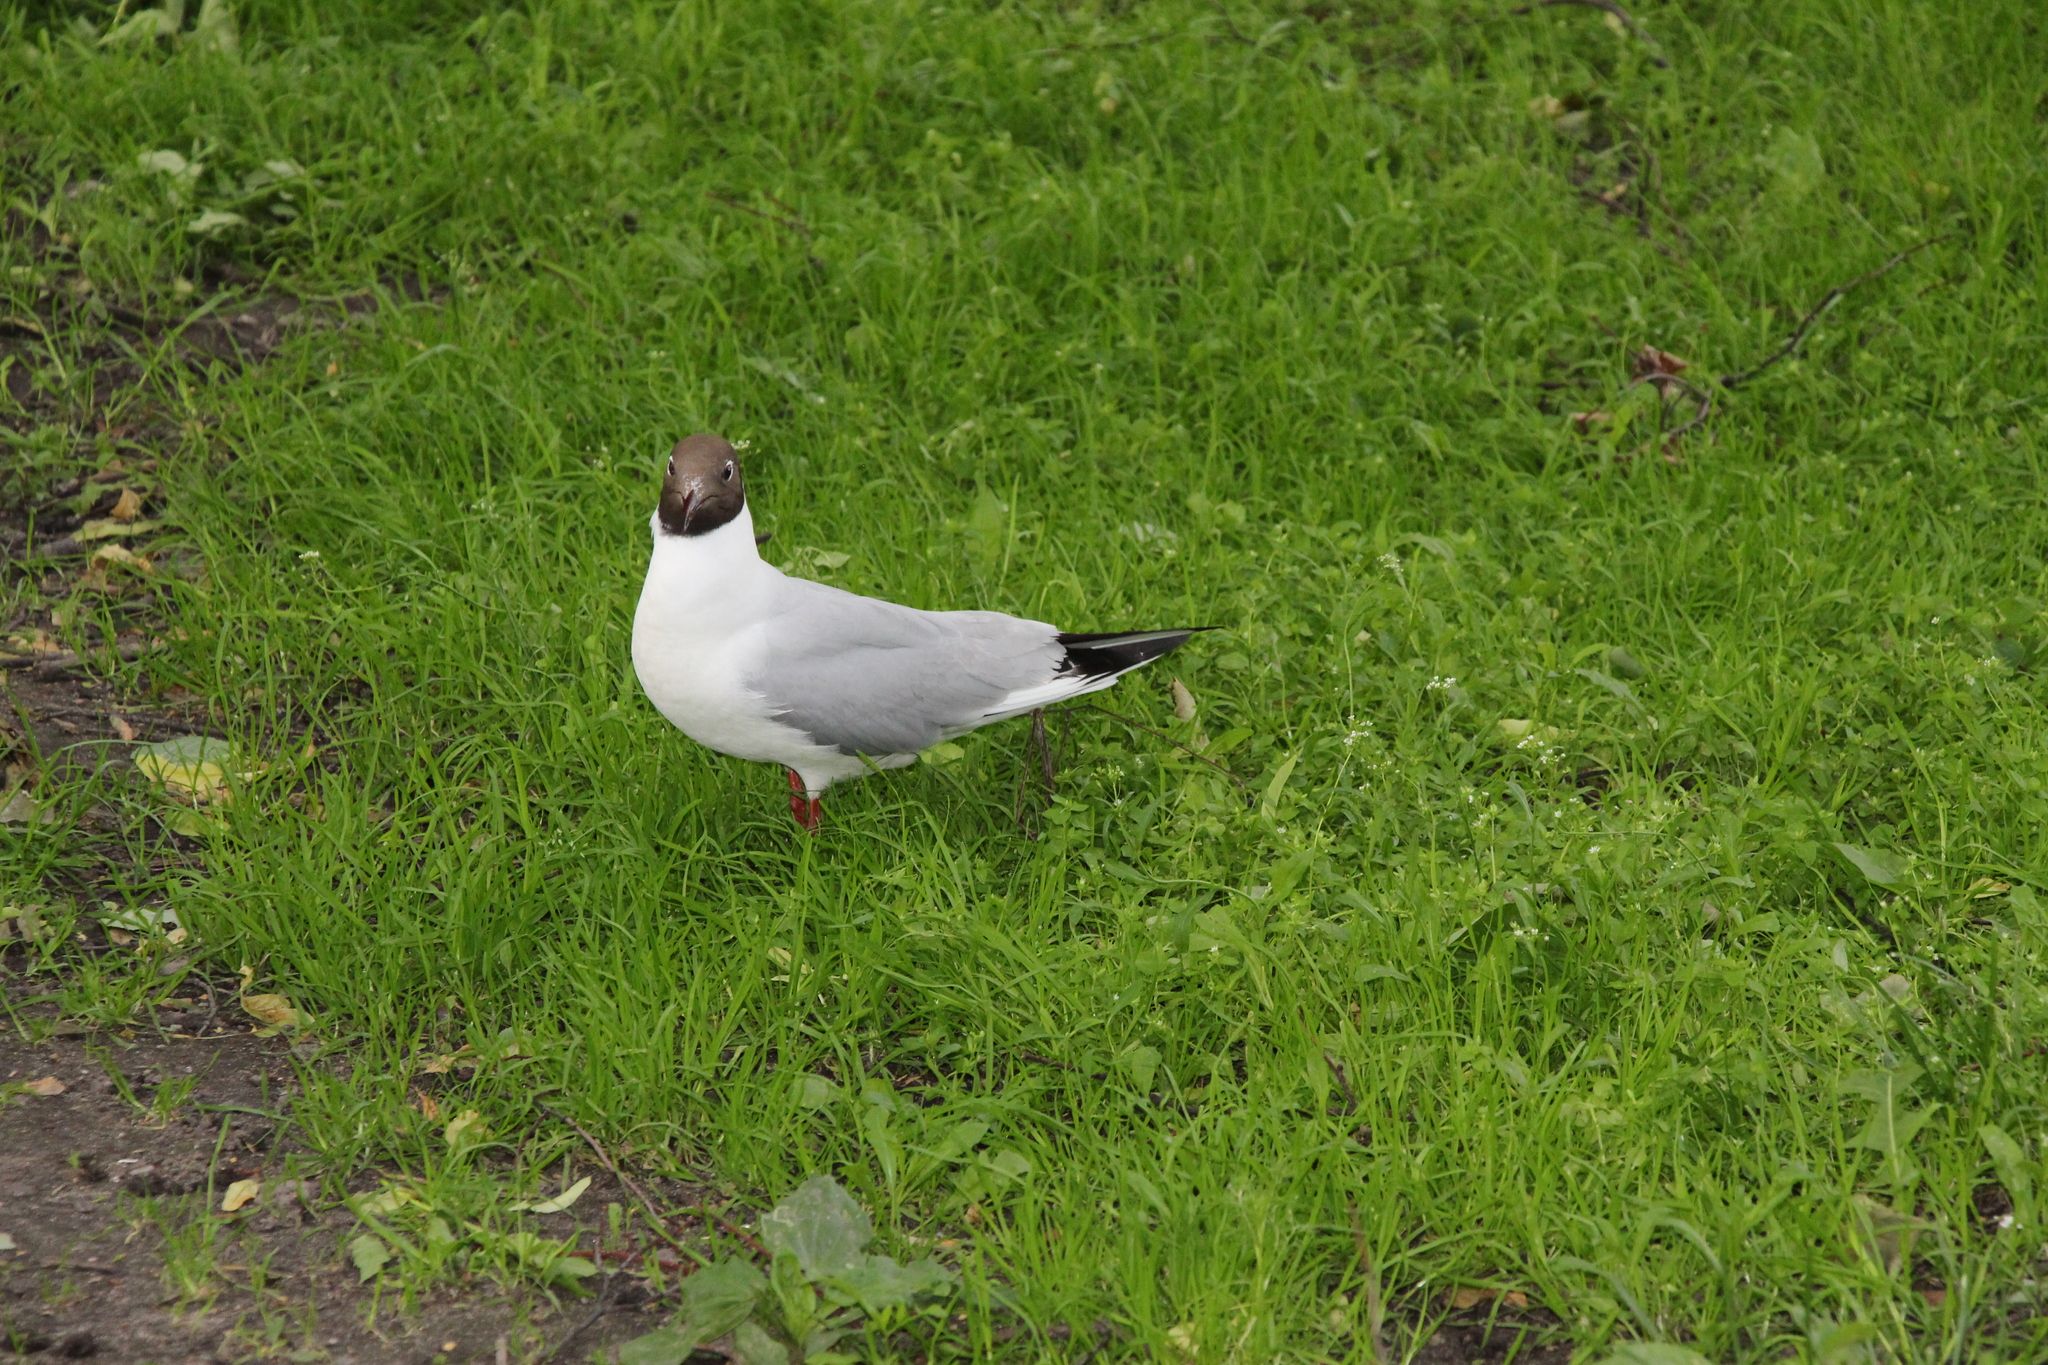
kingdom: Animalia
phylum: Chordata
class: Aves
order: Charadriiformes
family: Laridae
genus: Chroicocephalus
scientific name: Chroicocephalus ridibundus
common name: Black-headed gull
